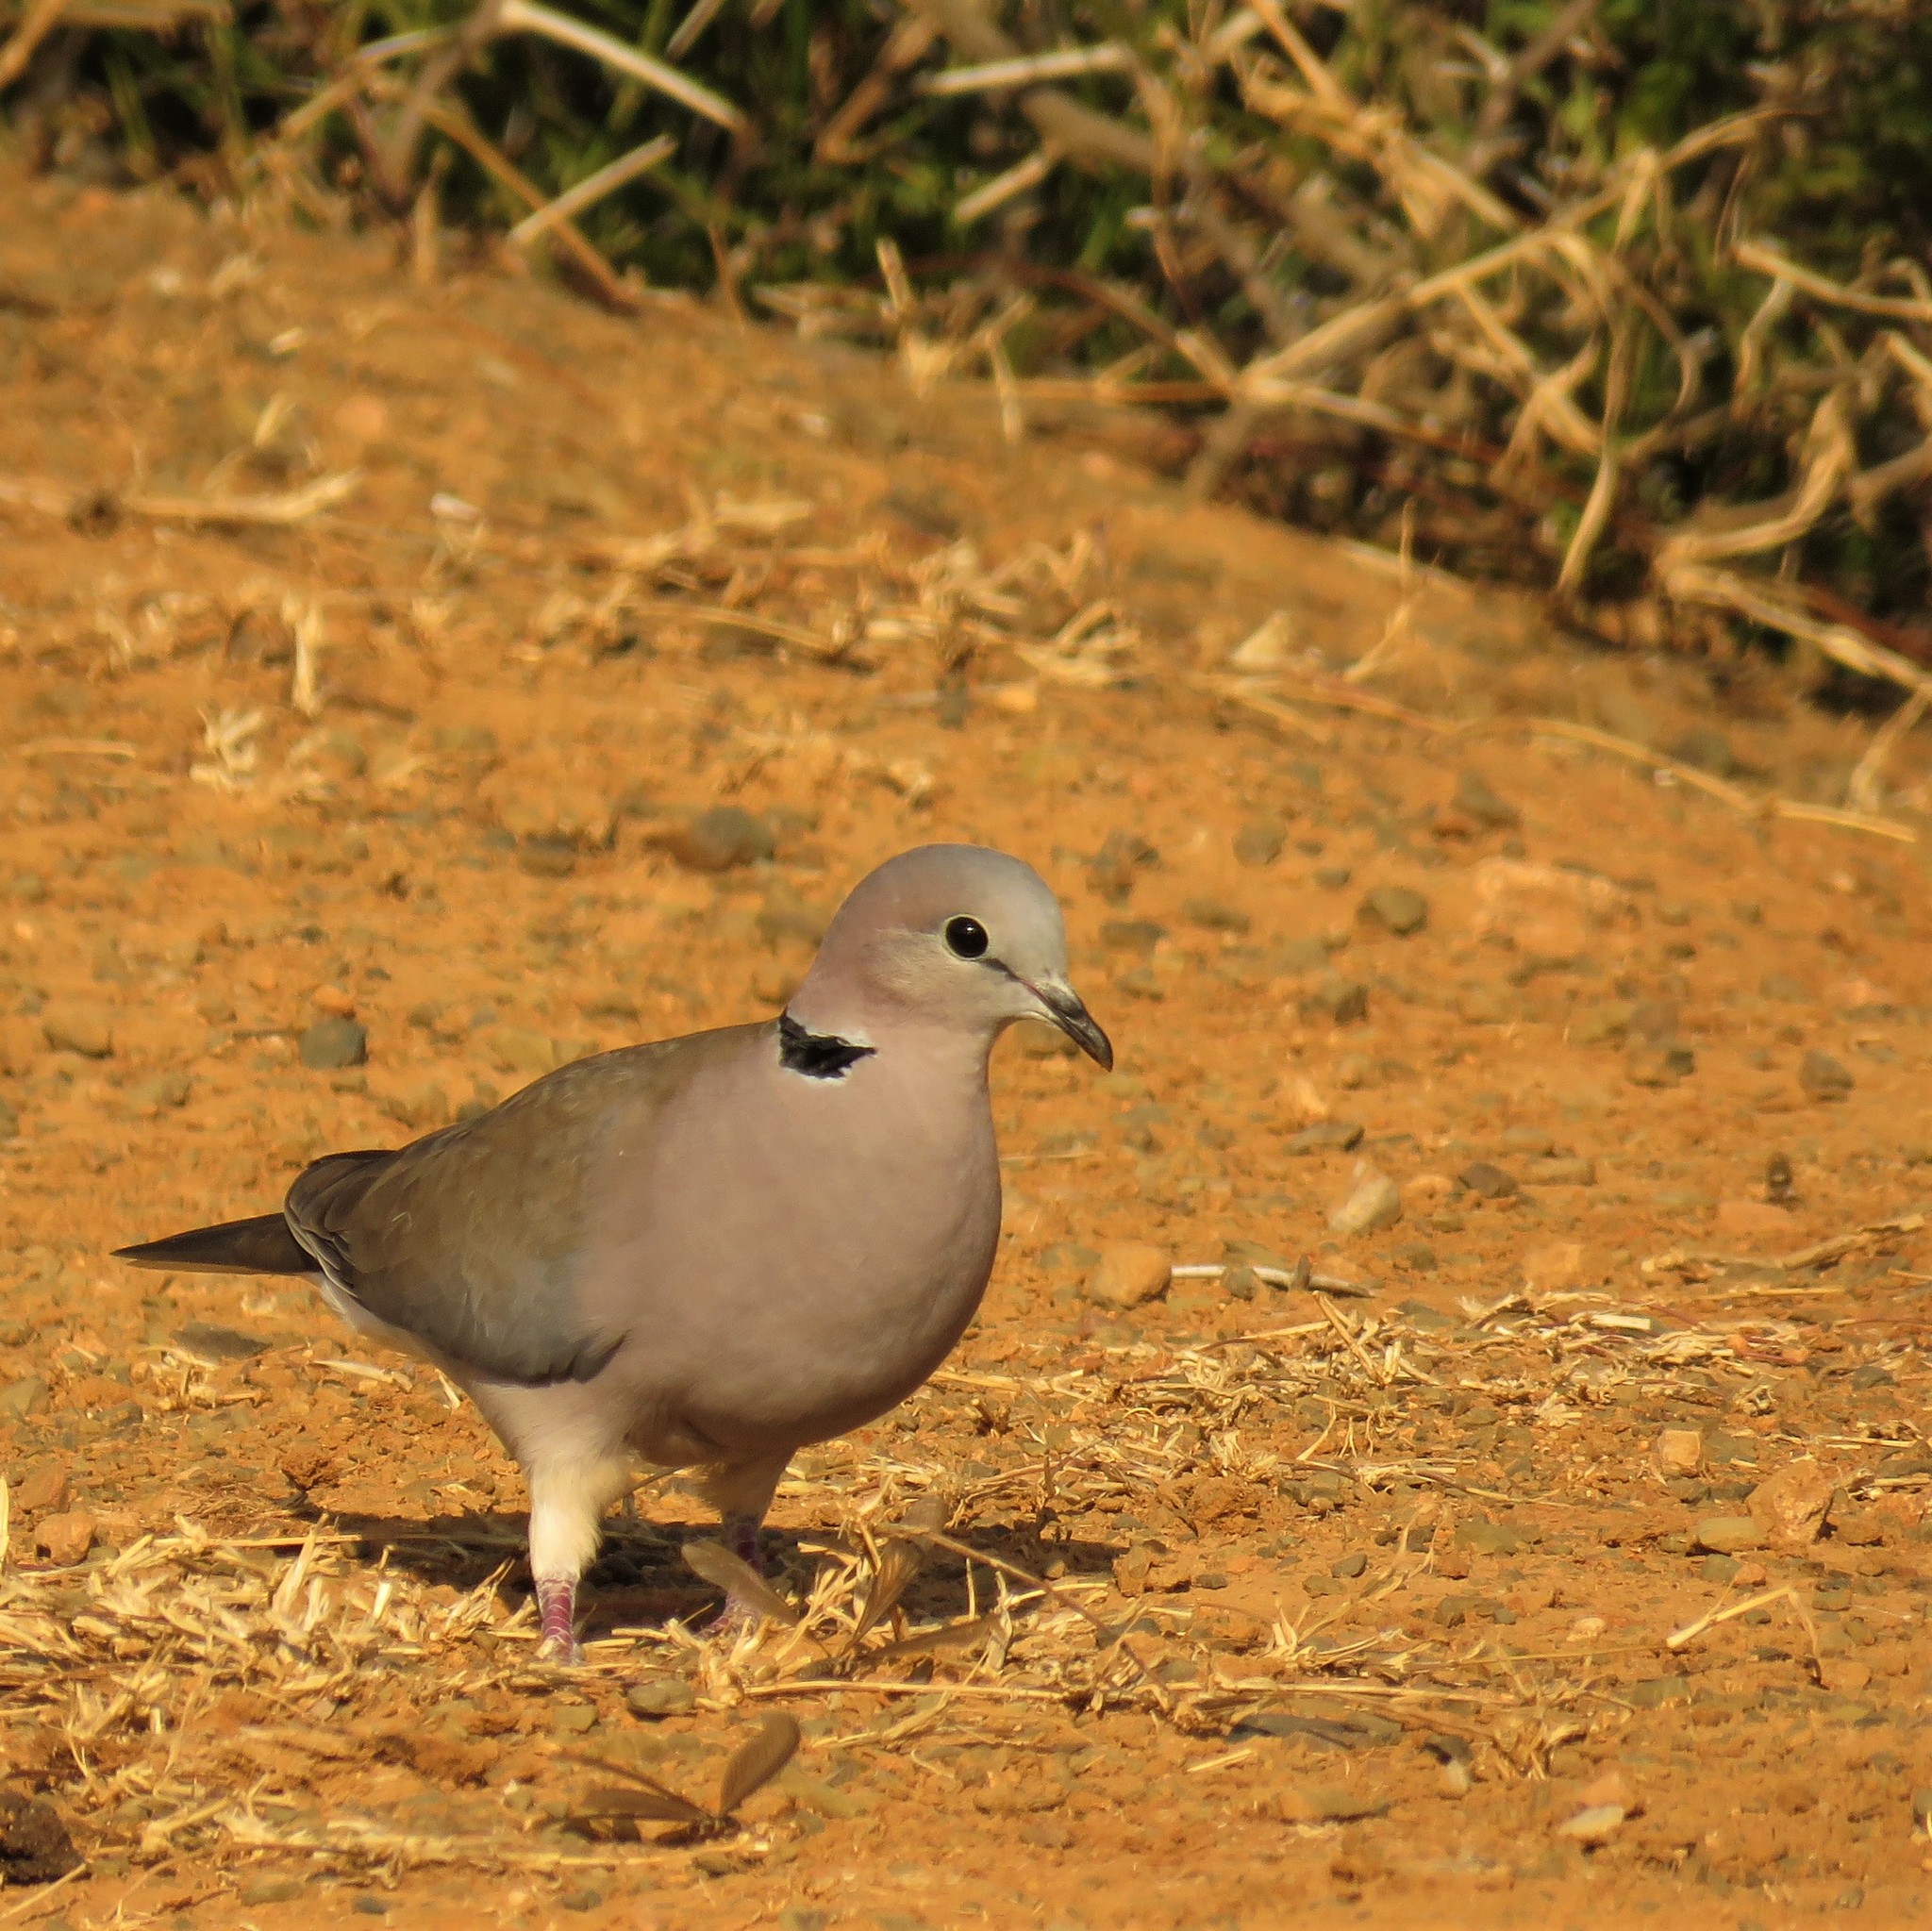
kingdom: Animalia
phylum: Chordata
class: Aves
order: Columbiformes
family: Columbidae
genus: Streptopelia
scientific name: Streptopelia capicola
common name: Ring-necked dove
